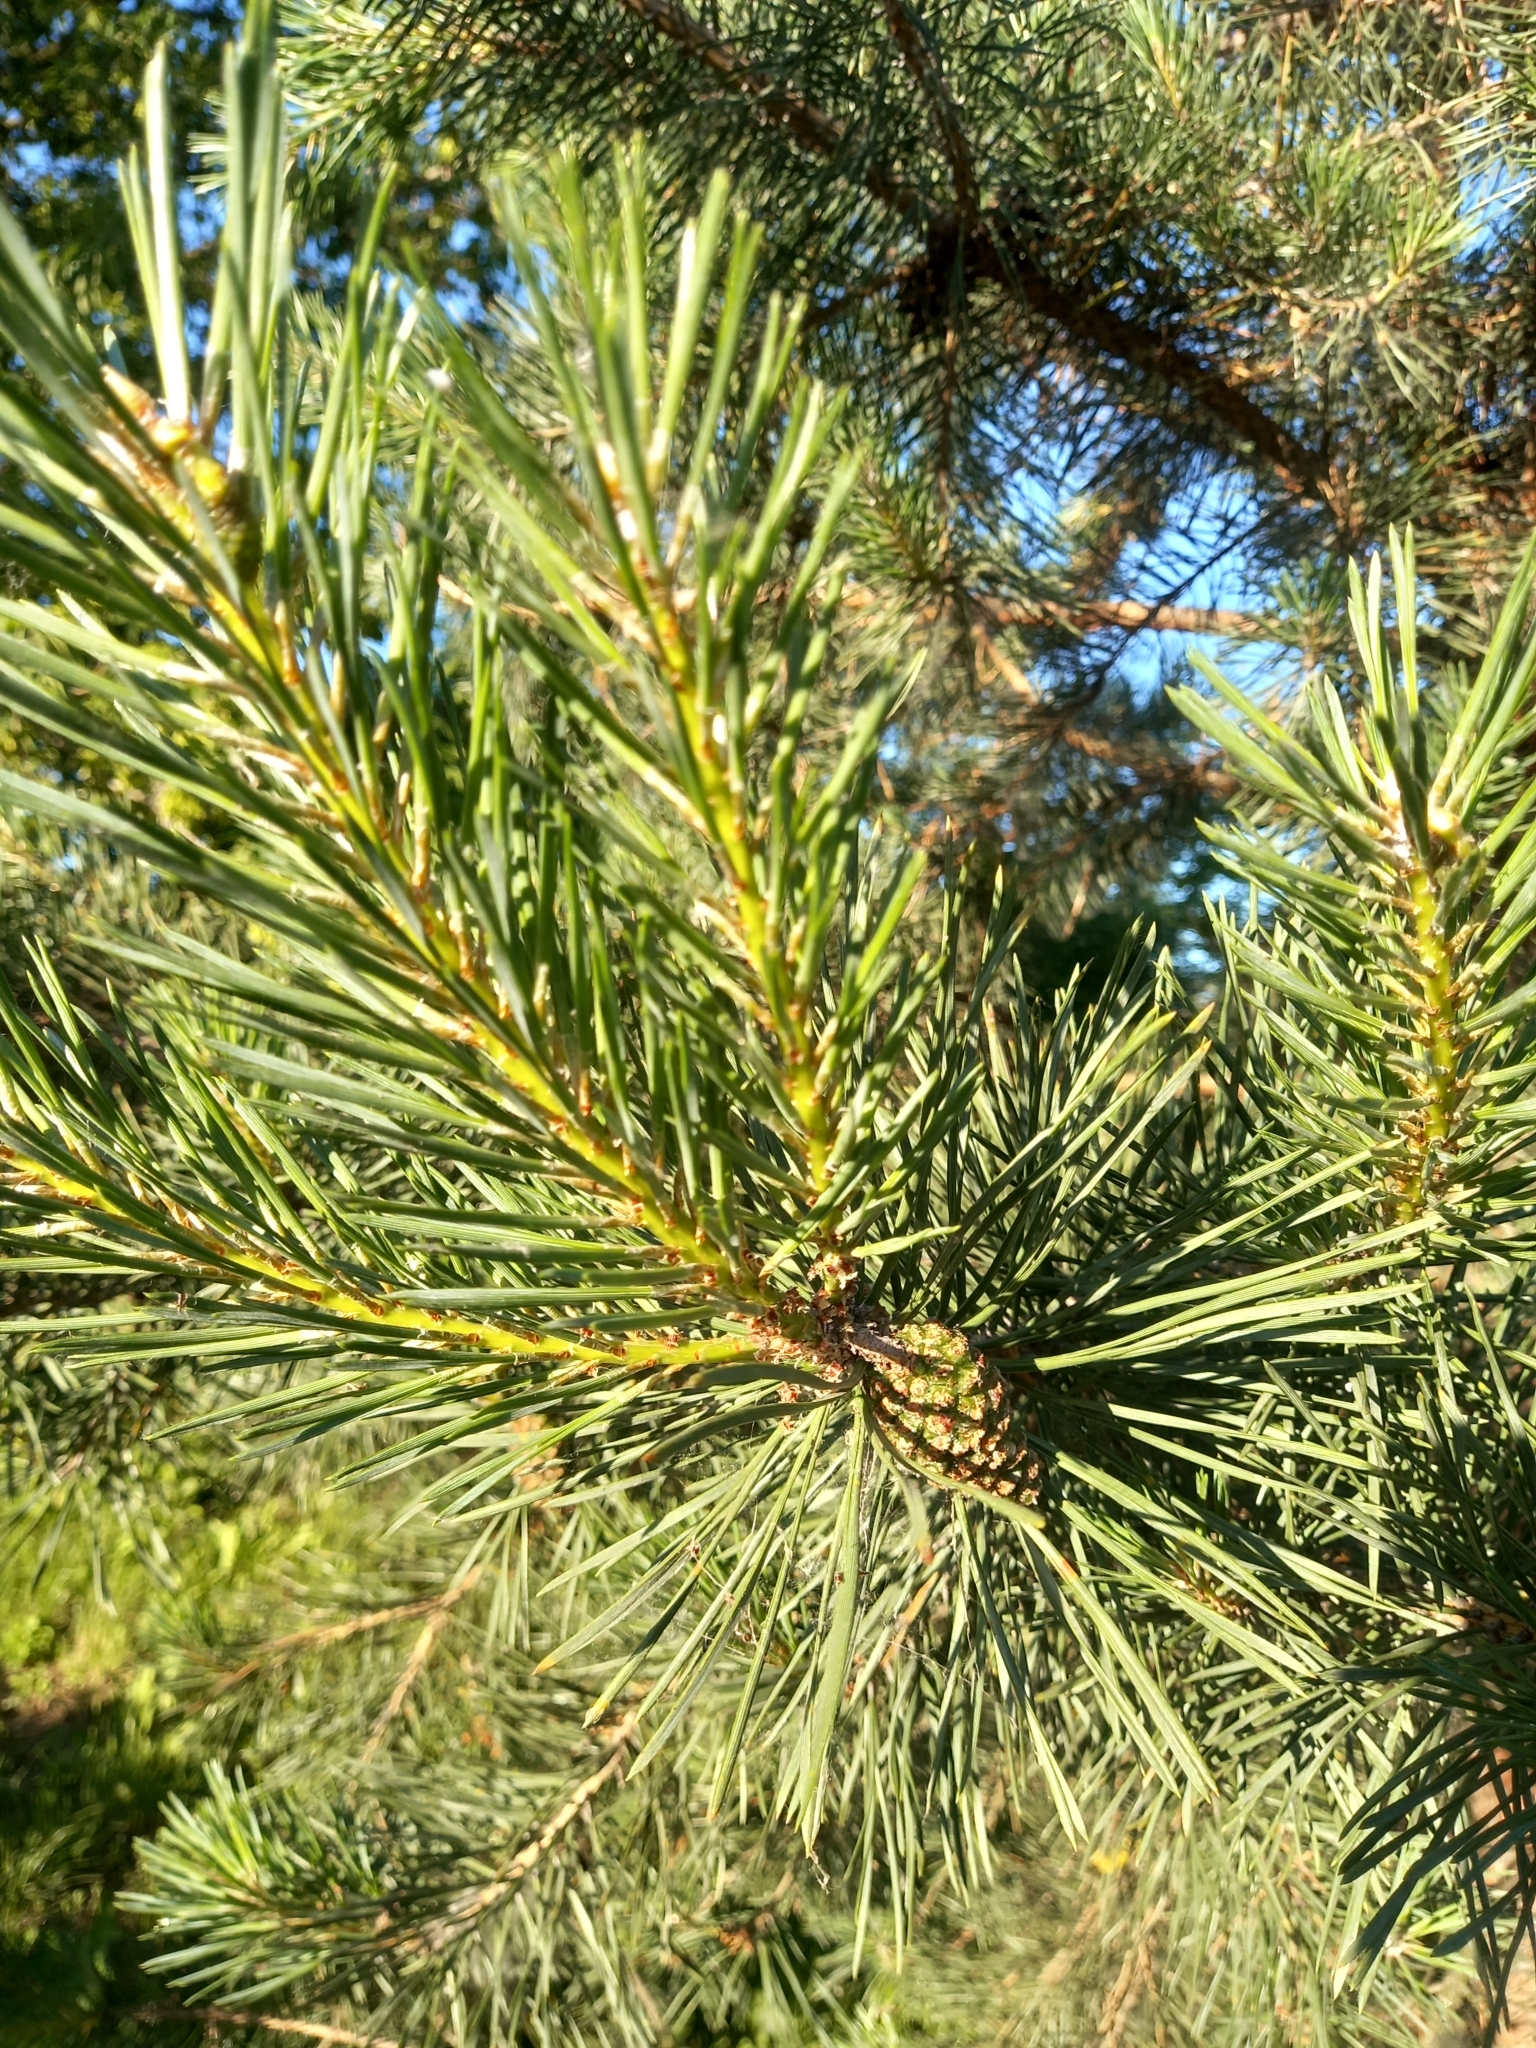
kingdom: Plantae
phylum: Tracheophyta
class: Pinopsida
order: Pinales
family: Pinaceae
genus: Pinus
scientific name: Pinus sylvestris
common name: Scots pine
